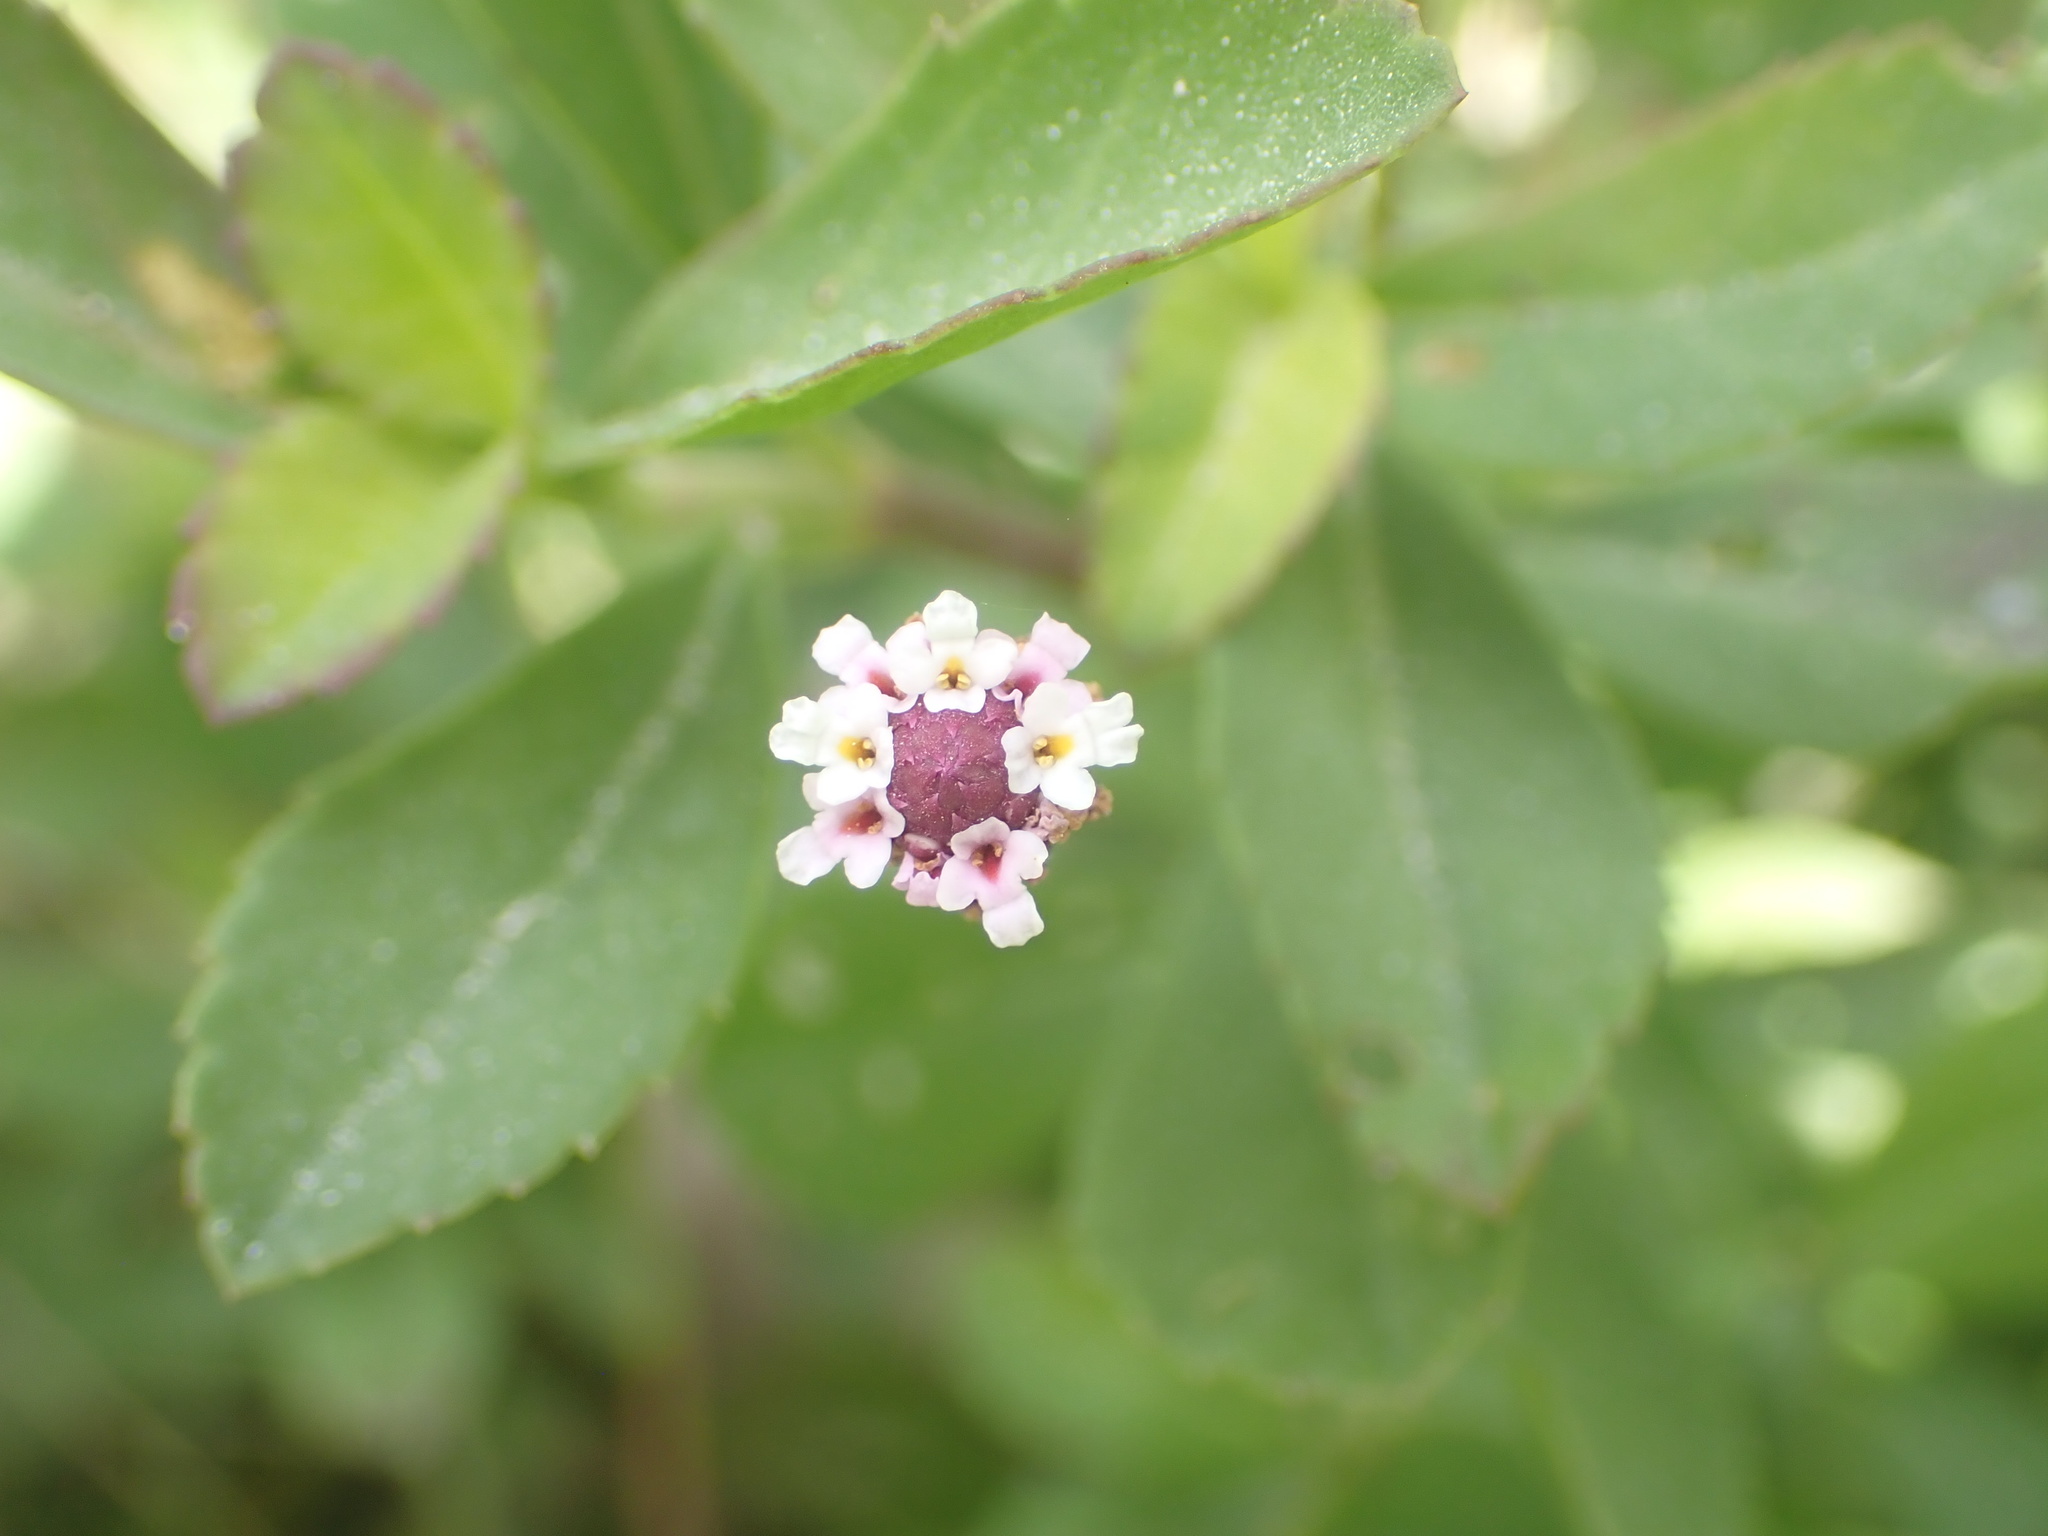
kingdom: Plantae
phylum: Tracheophyta
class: Magnoliopsida
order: Lamiales
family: Verbenaceae
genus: Phyla
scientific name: Phyla nodiflora
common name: Frogfruit
